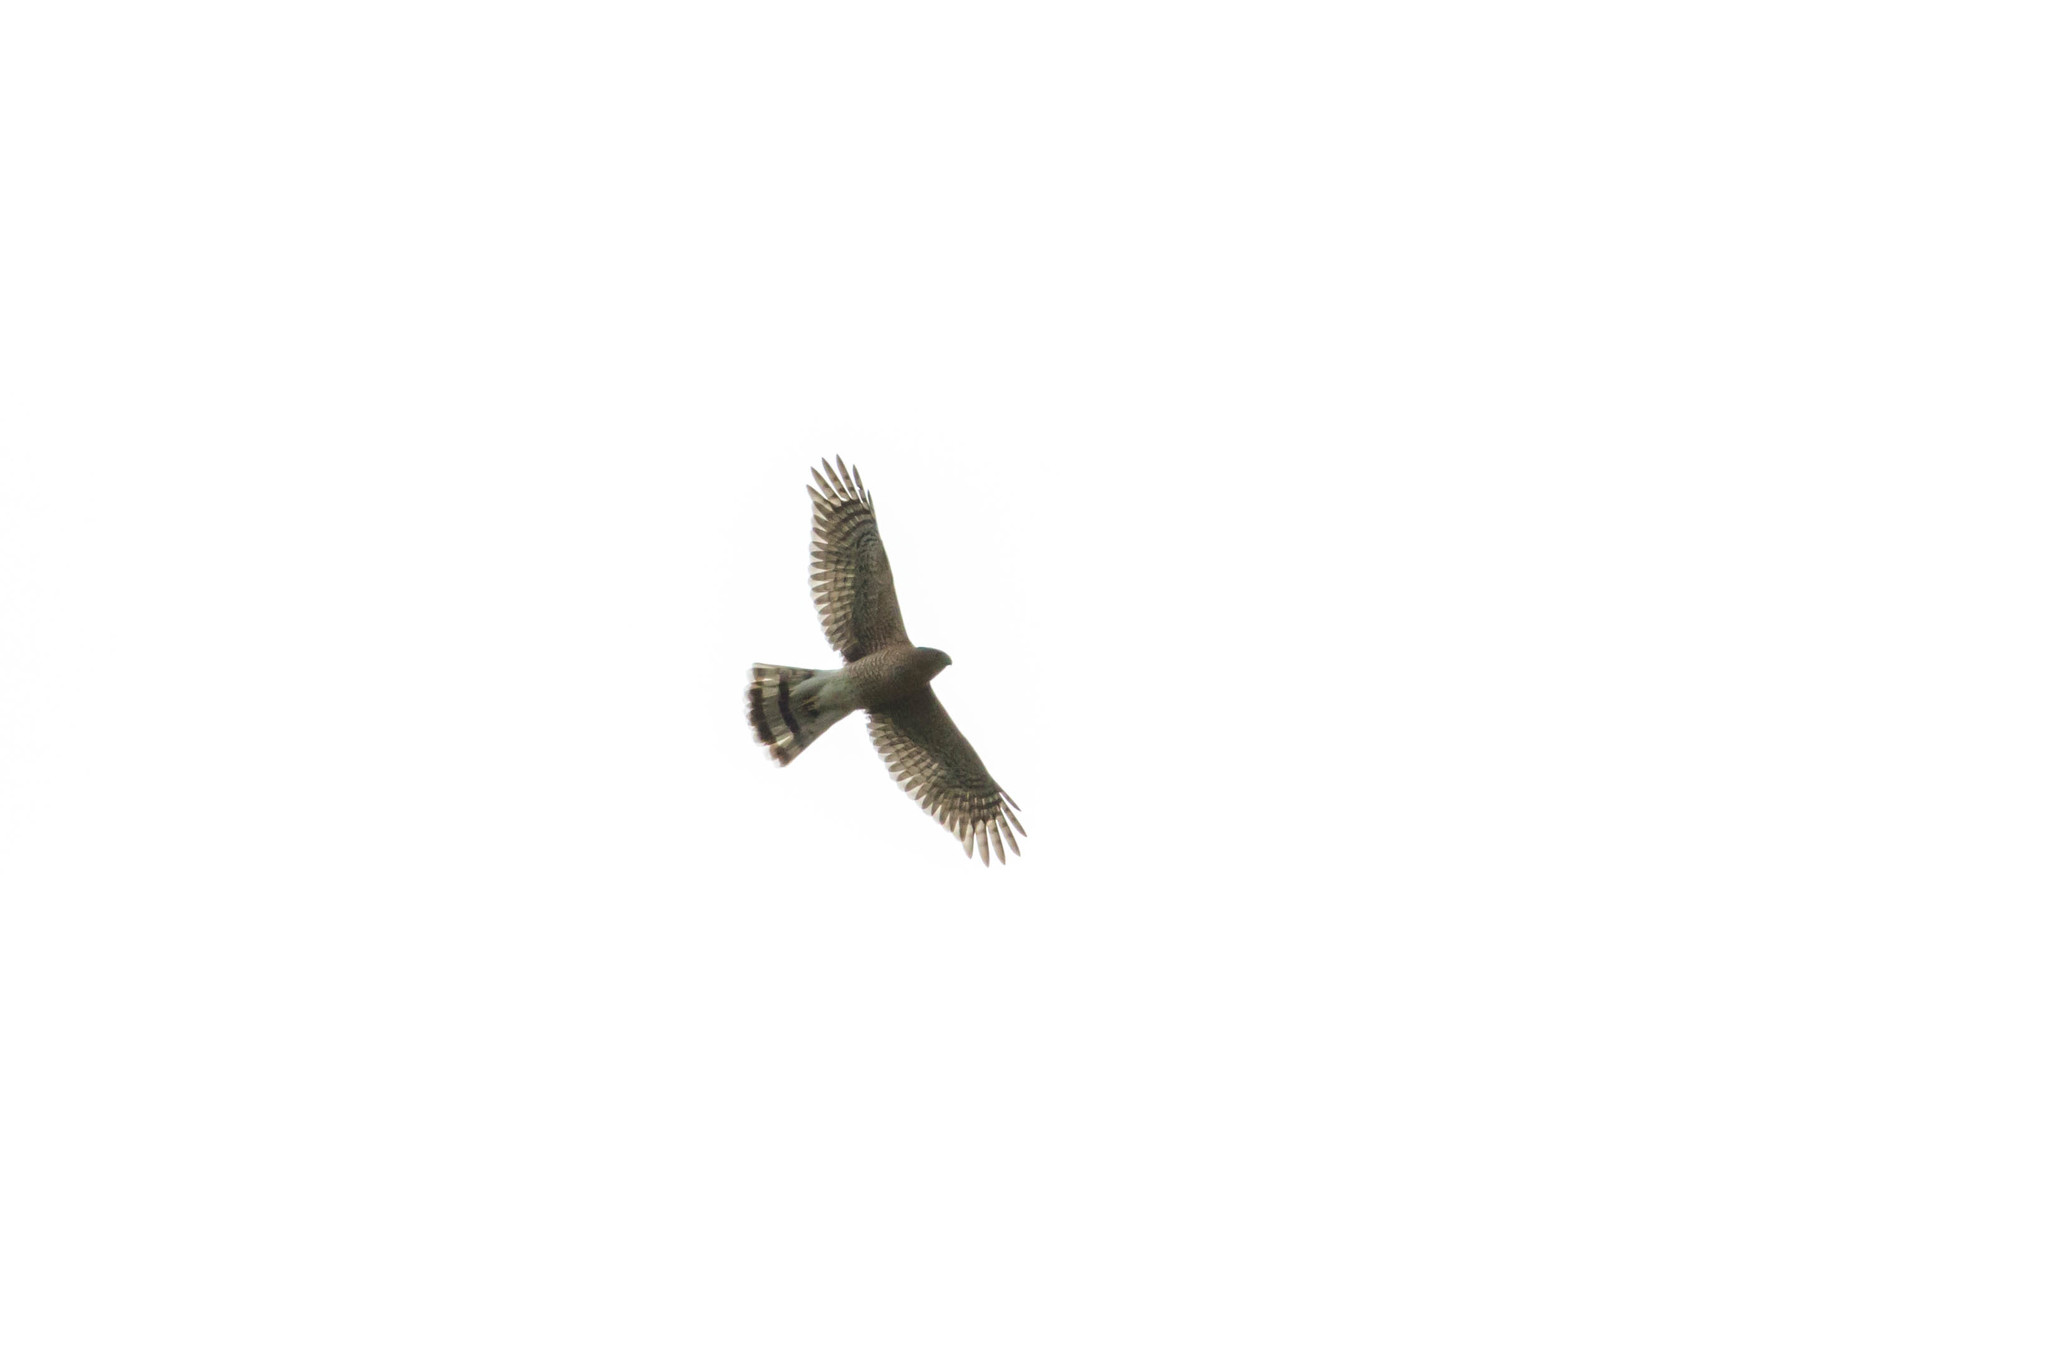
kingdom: Animalia
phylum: Chordata
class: Aves
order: Accipitriformes
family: Accipitridae
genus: Accipiter
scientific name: Accipiter cooperii
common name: Cooper's hawk
